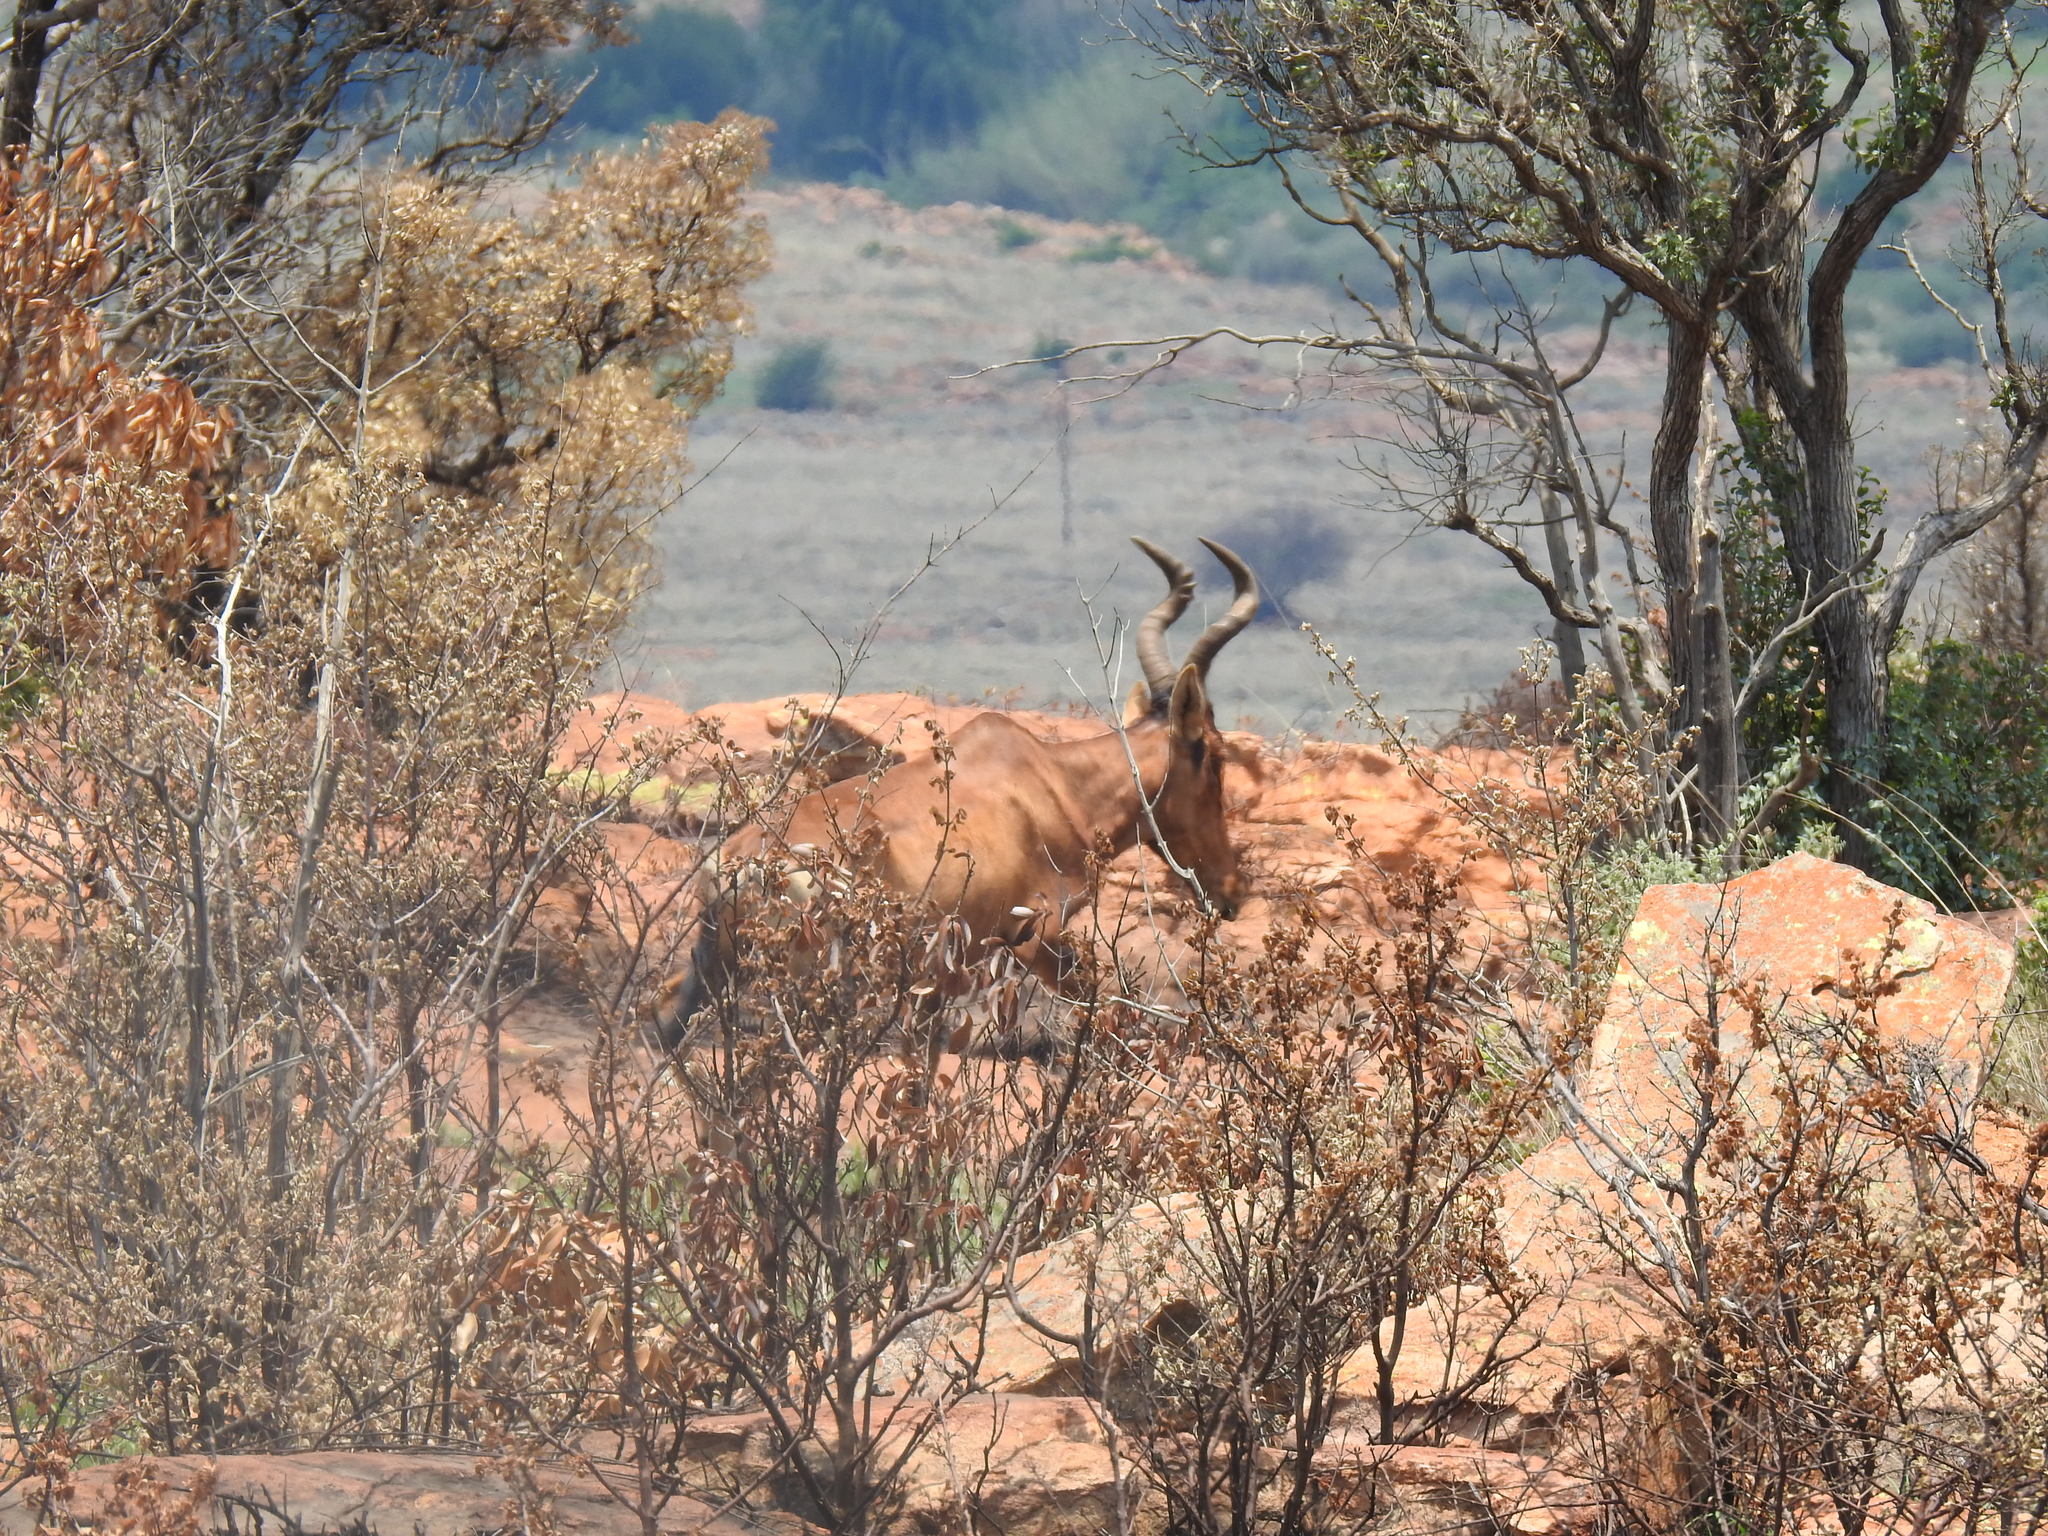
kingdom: Animalia
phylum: Chordata
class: Mammalia
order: Artiodactyla
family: Bovidae
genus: Alcelaphus
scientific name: Alcelaphus caama
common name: Red hartebeest
